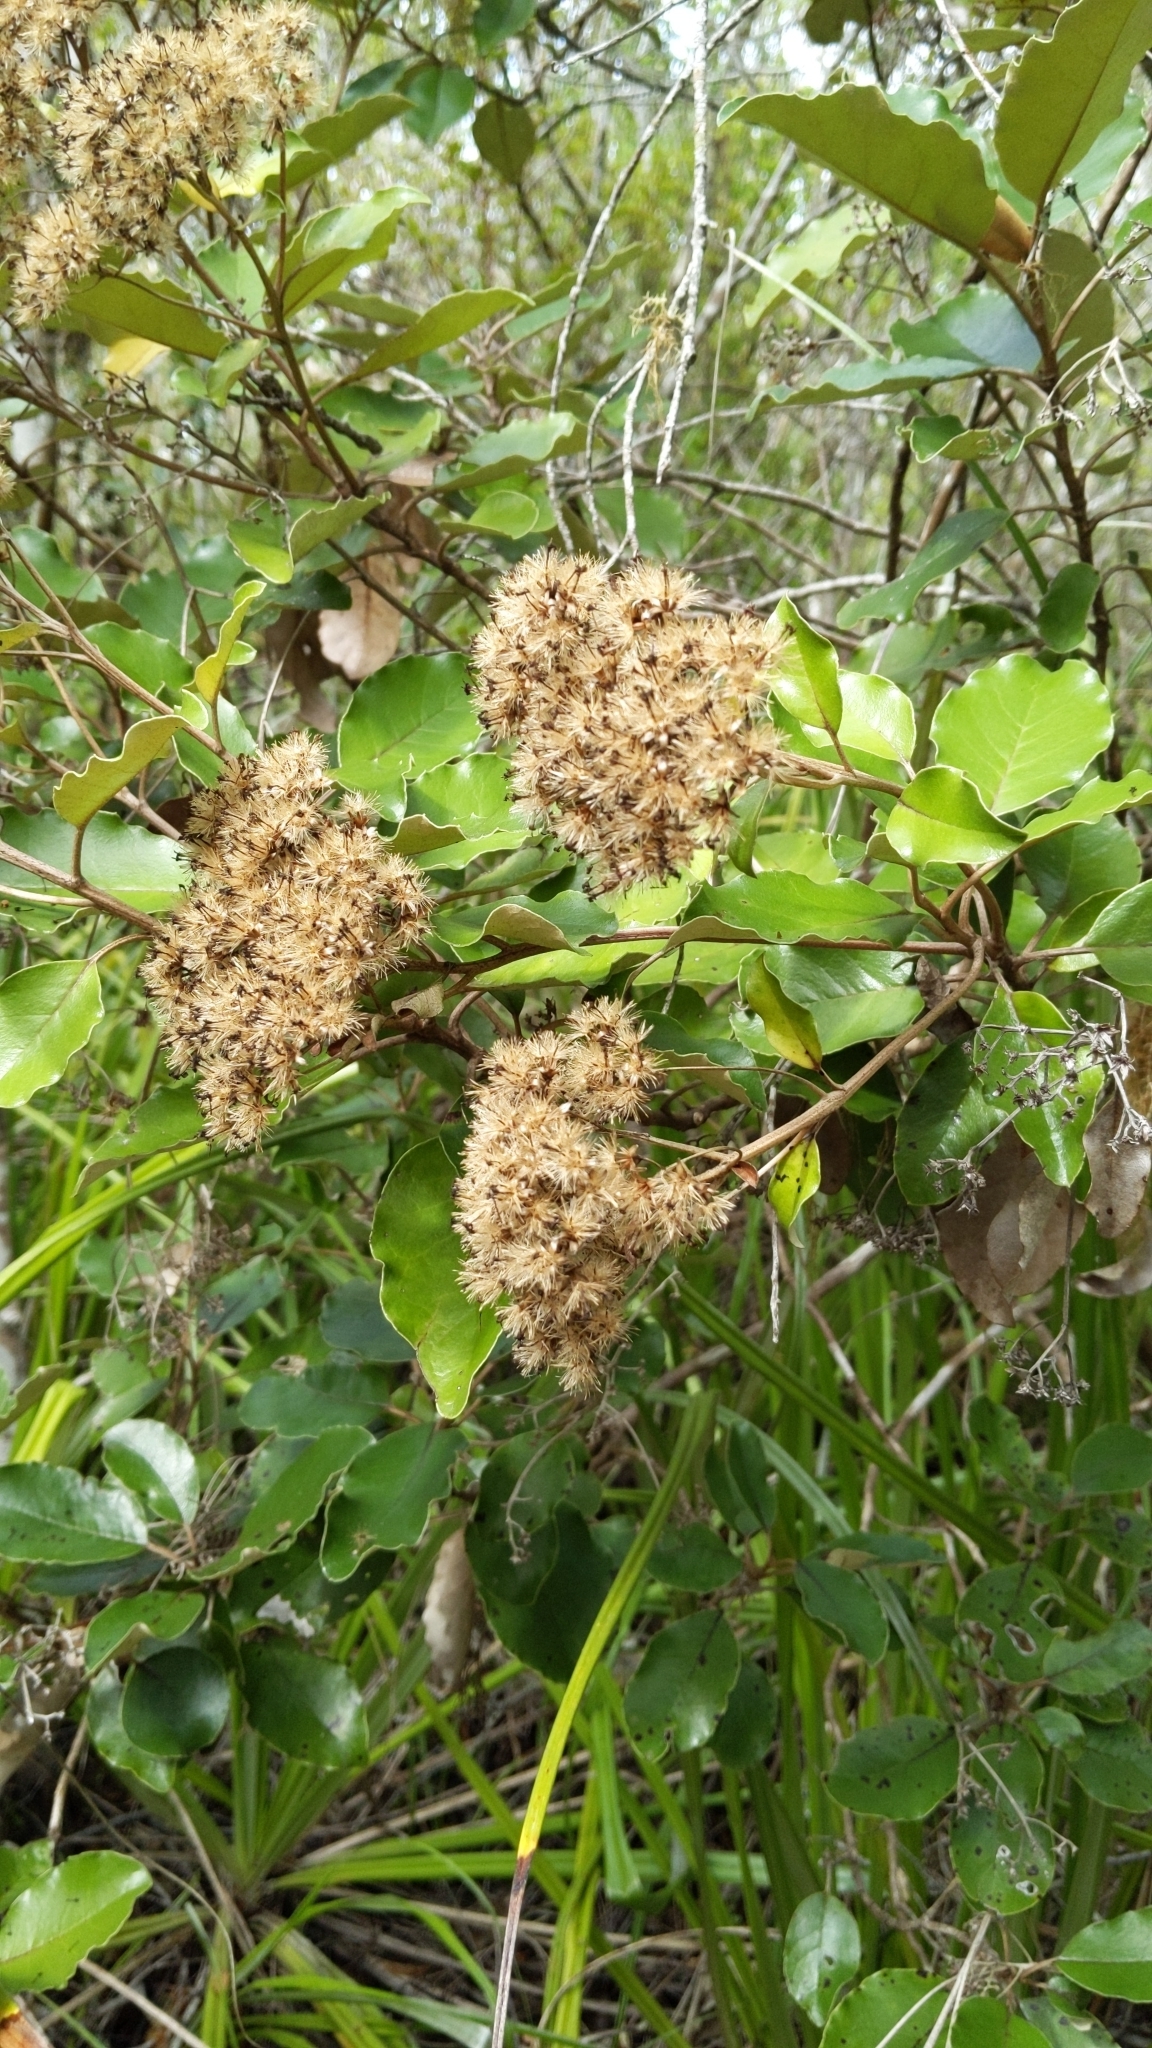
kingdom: Plantae
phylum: Tracheophyta
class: Magnoliopsida
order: Asterales
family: Asteraceae
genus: Olearia
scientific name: Olearia furfuracea
